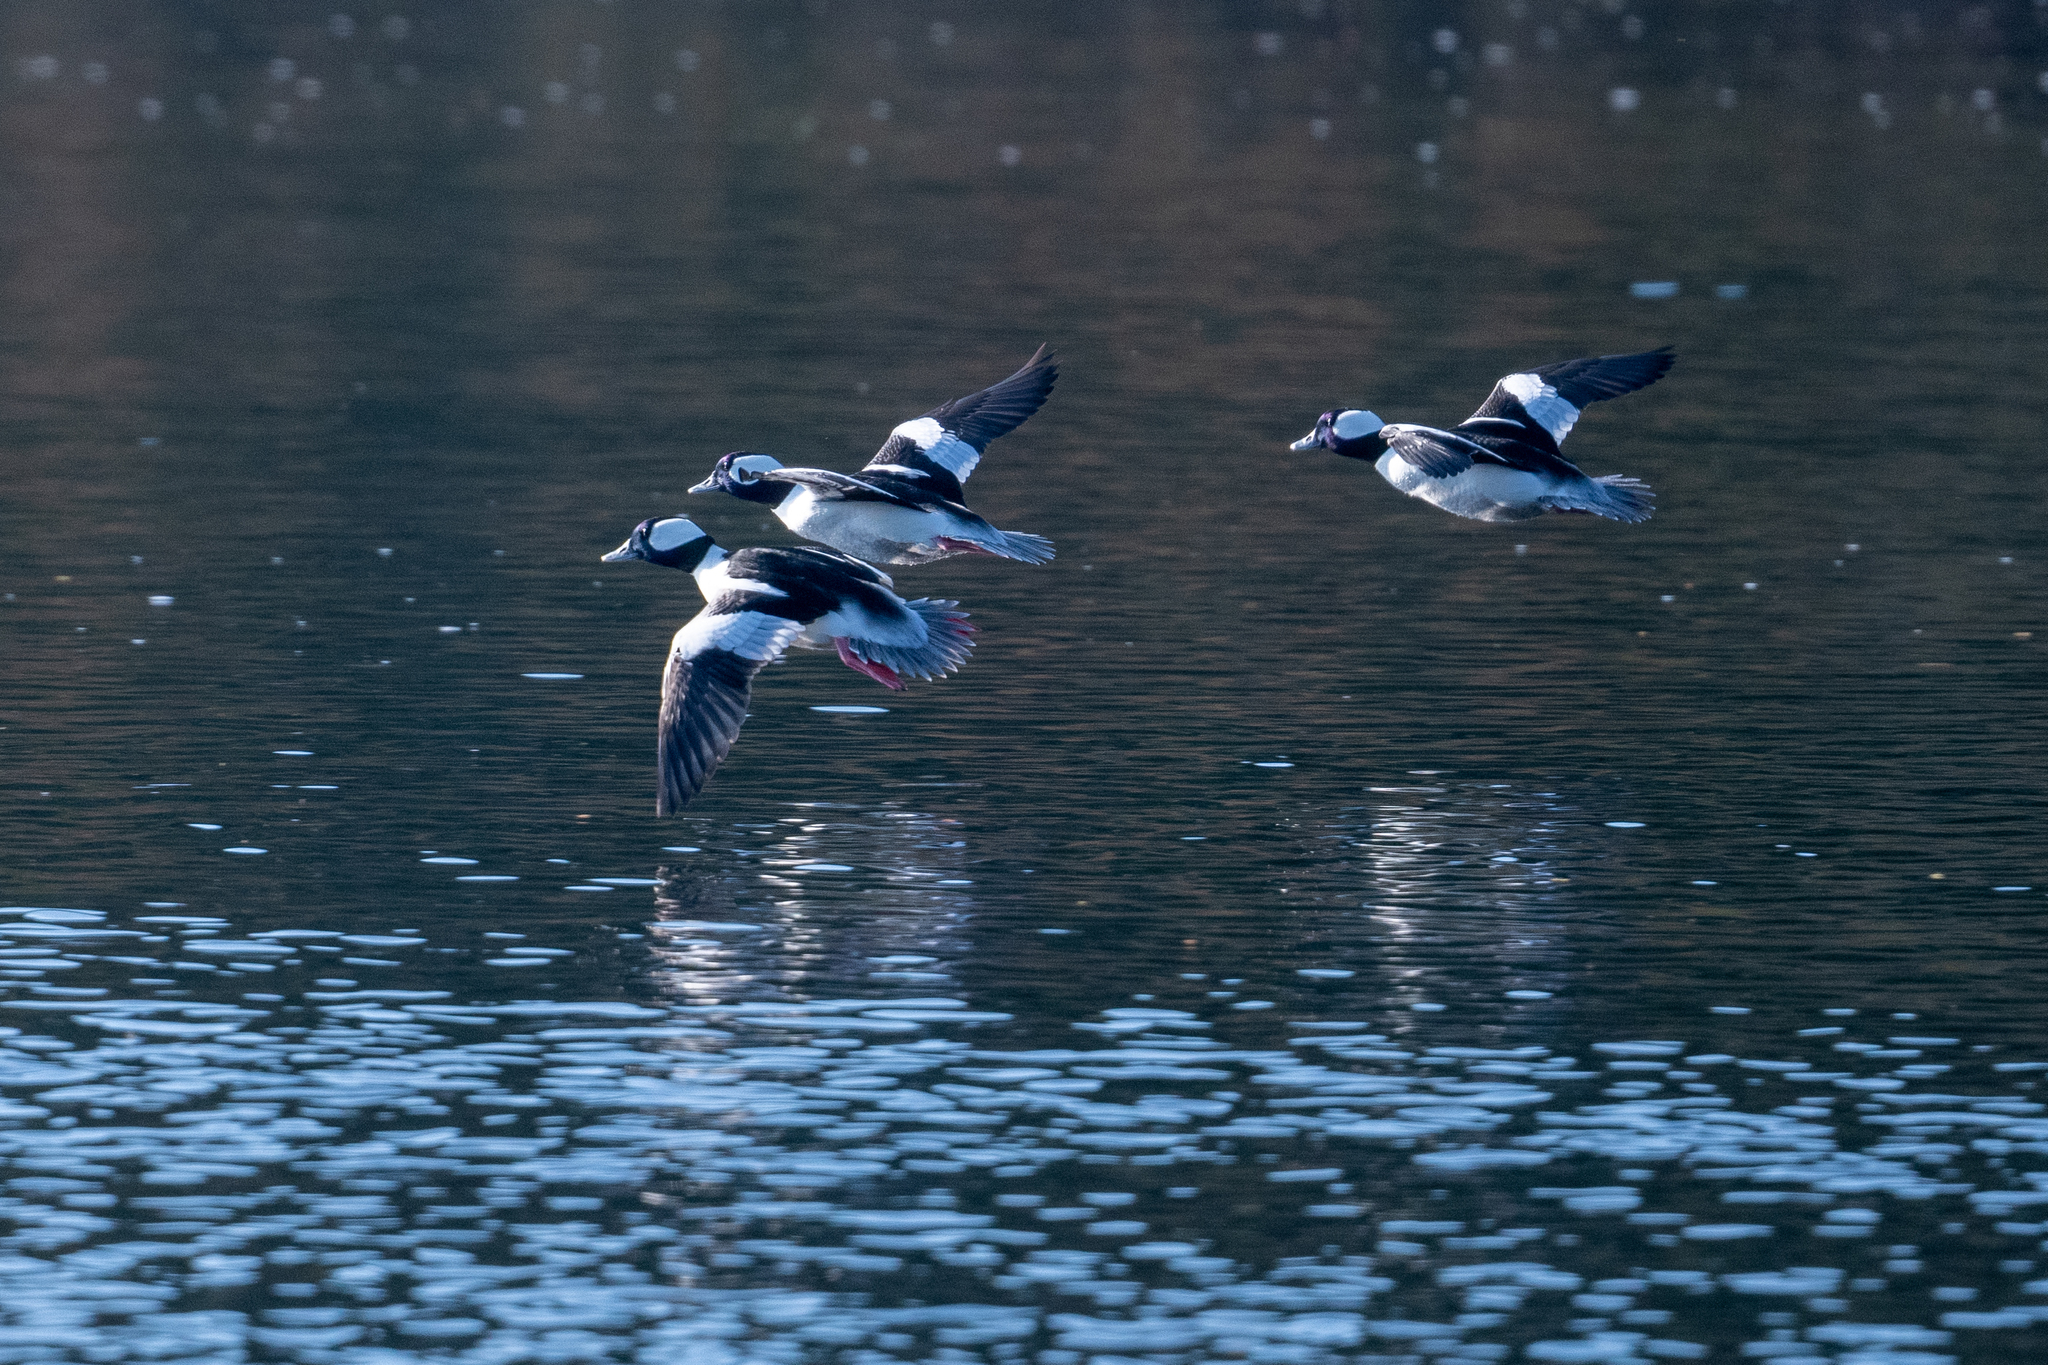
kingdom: Animalia
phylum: Chordata
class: Aves
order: Anseriformes
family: Anatidae
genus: Bucephala
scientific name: Bucephala albeola
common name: Bufflehead
